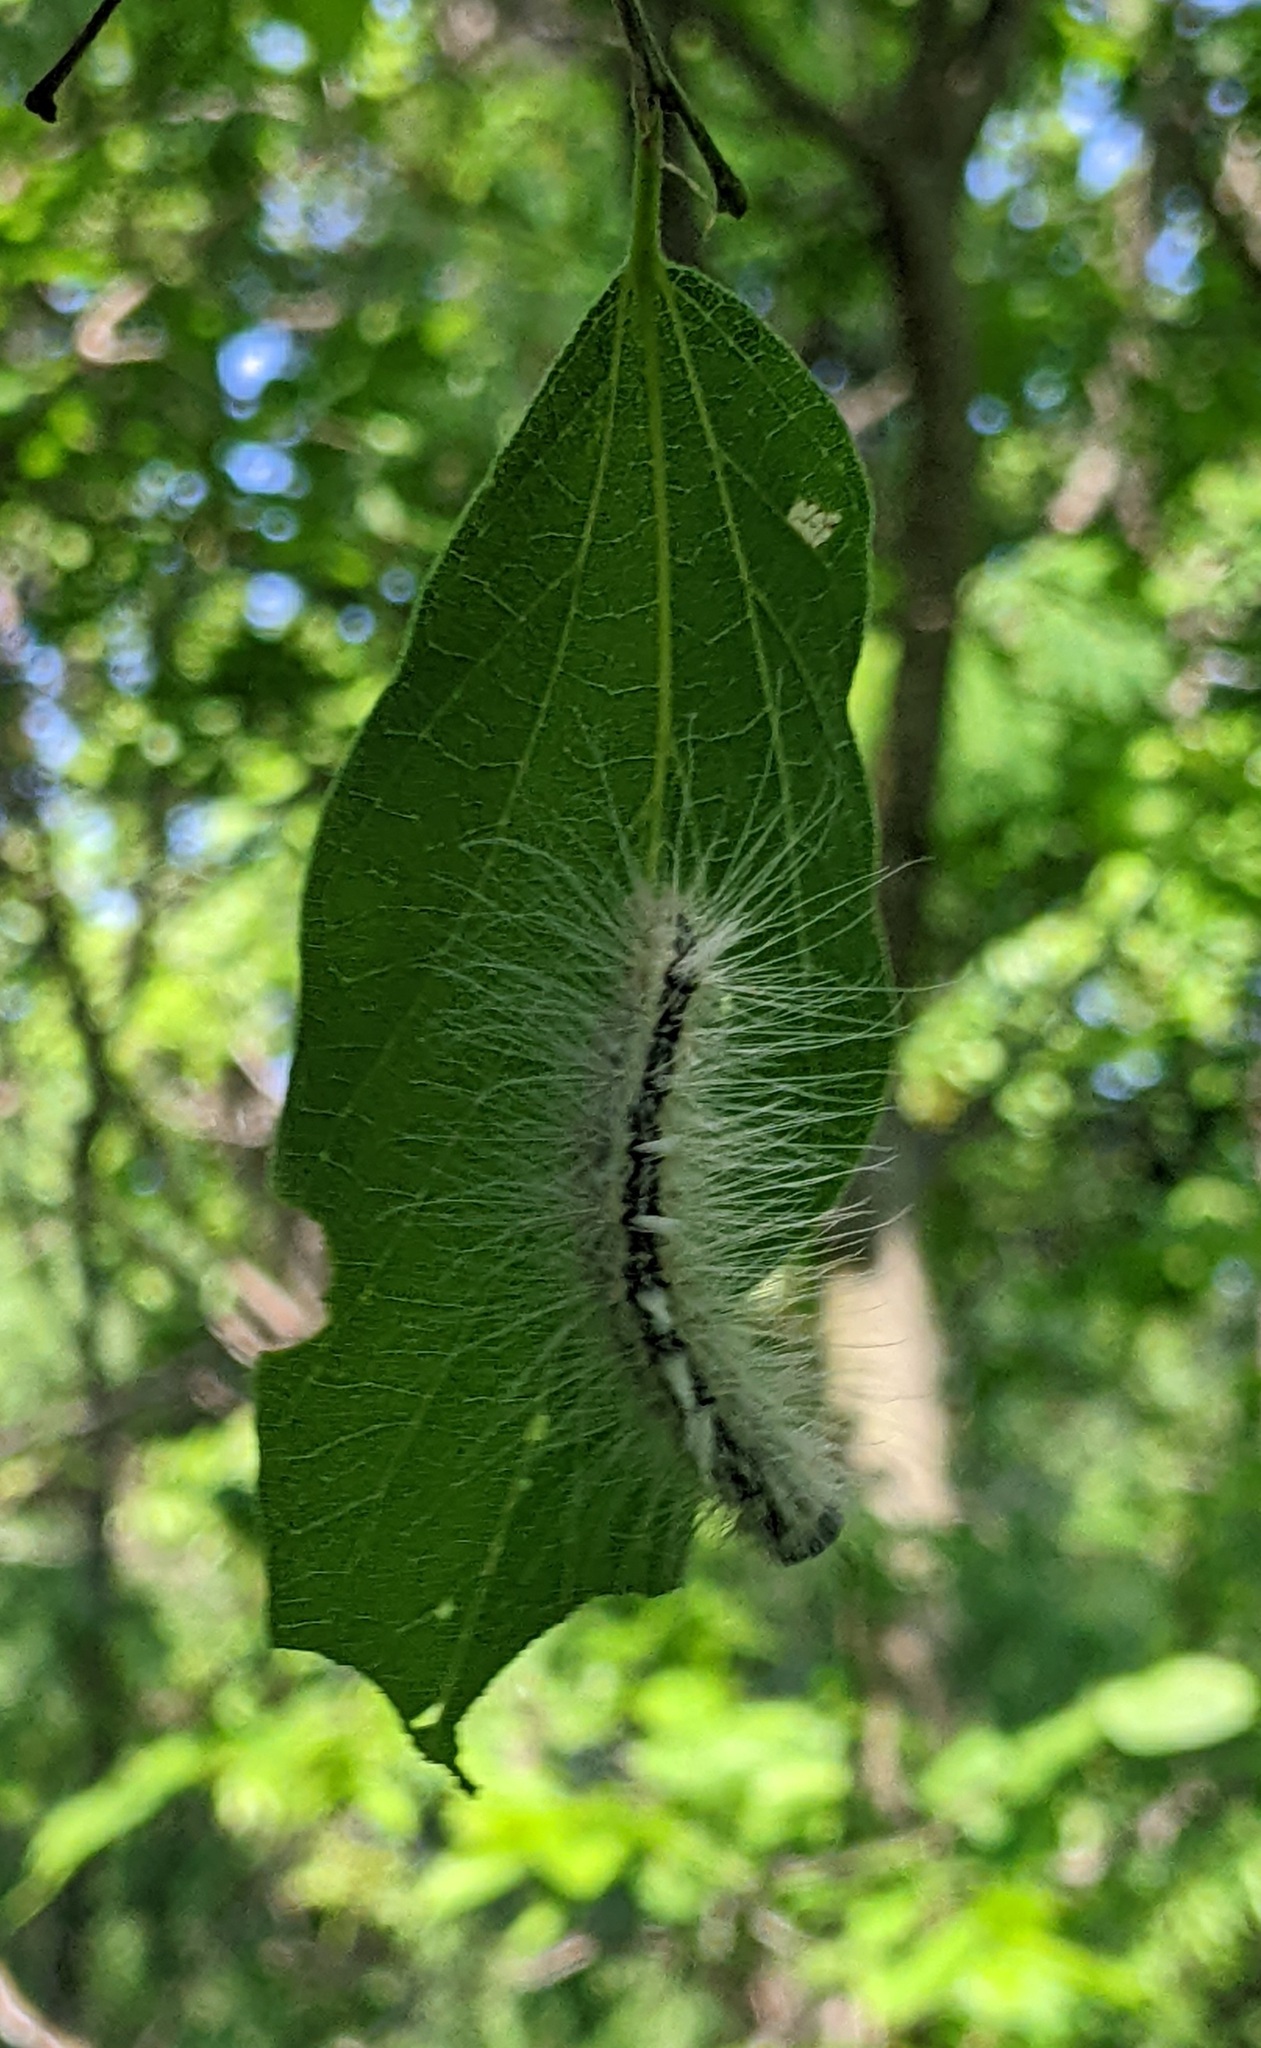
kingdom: Animalia
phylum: Arthropoda
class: Insecta
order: Lepidoptera
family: Noctuidae
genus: Acronicta
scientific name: Acronicta rubricoma
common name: Hackberry dagger
